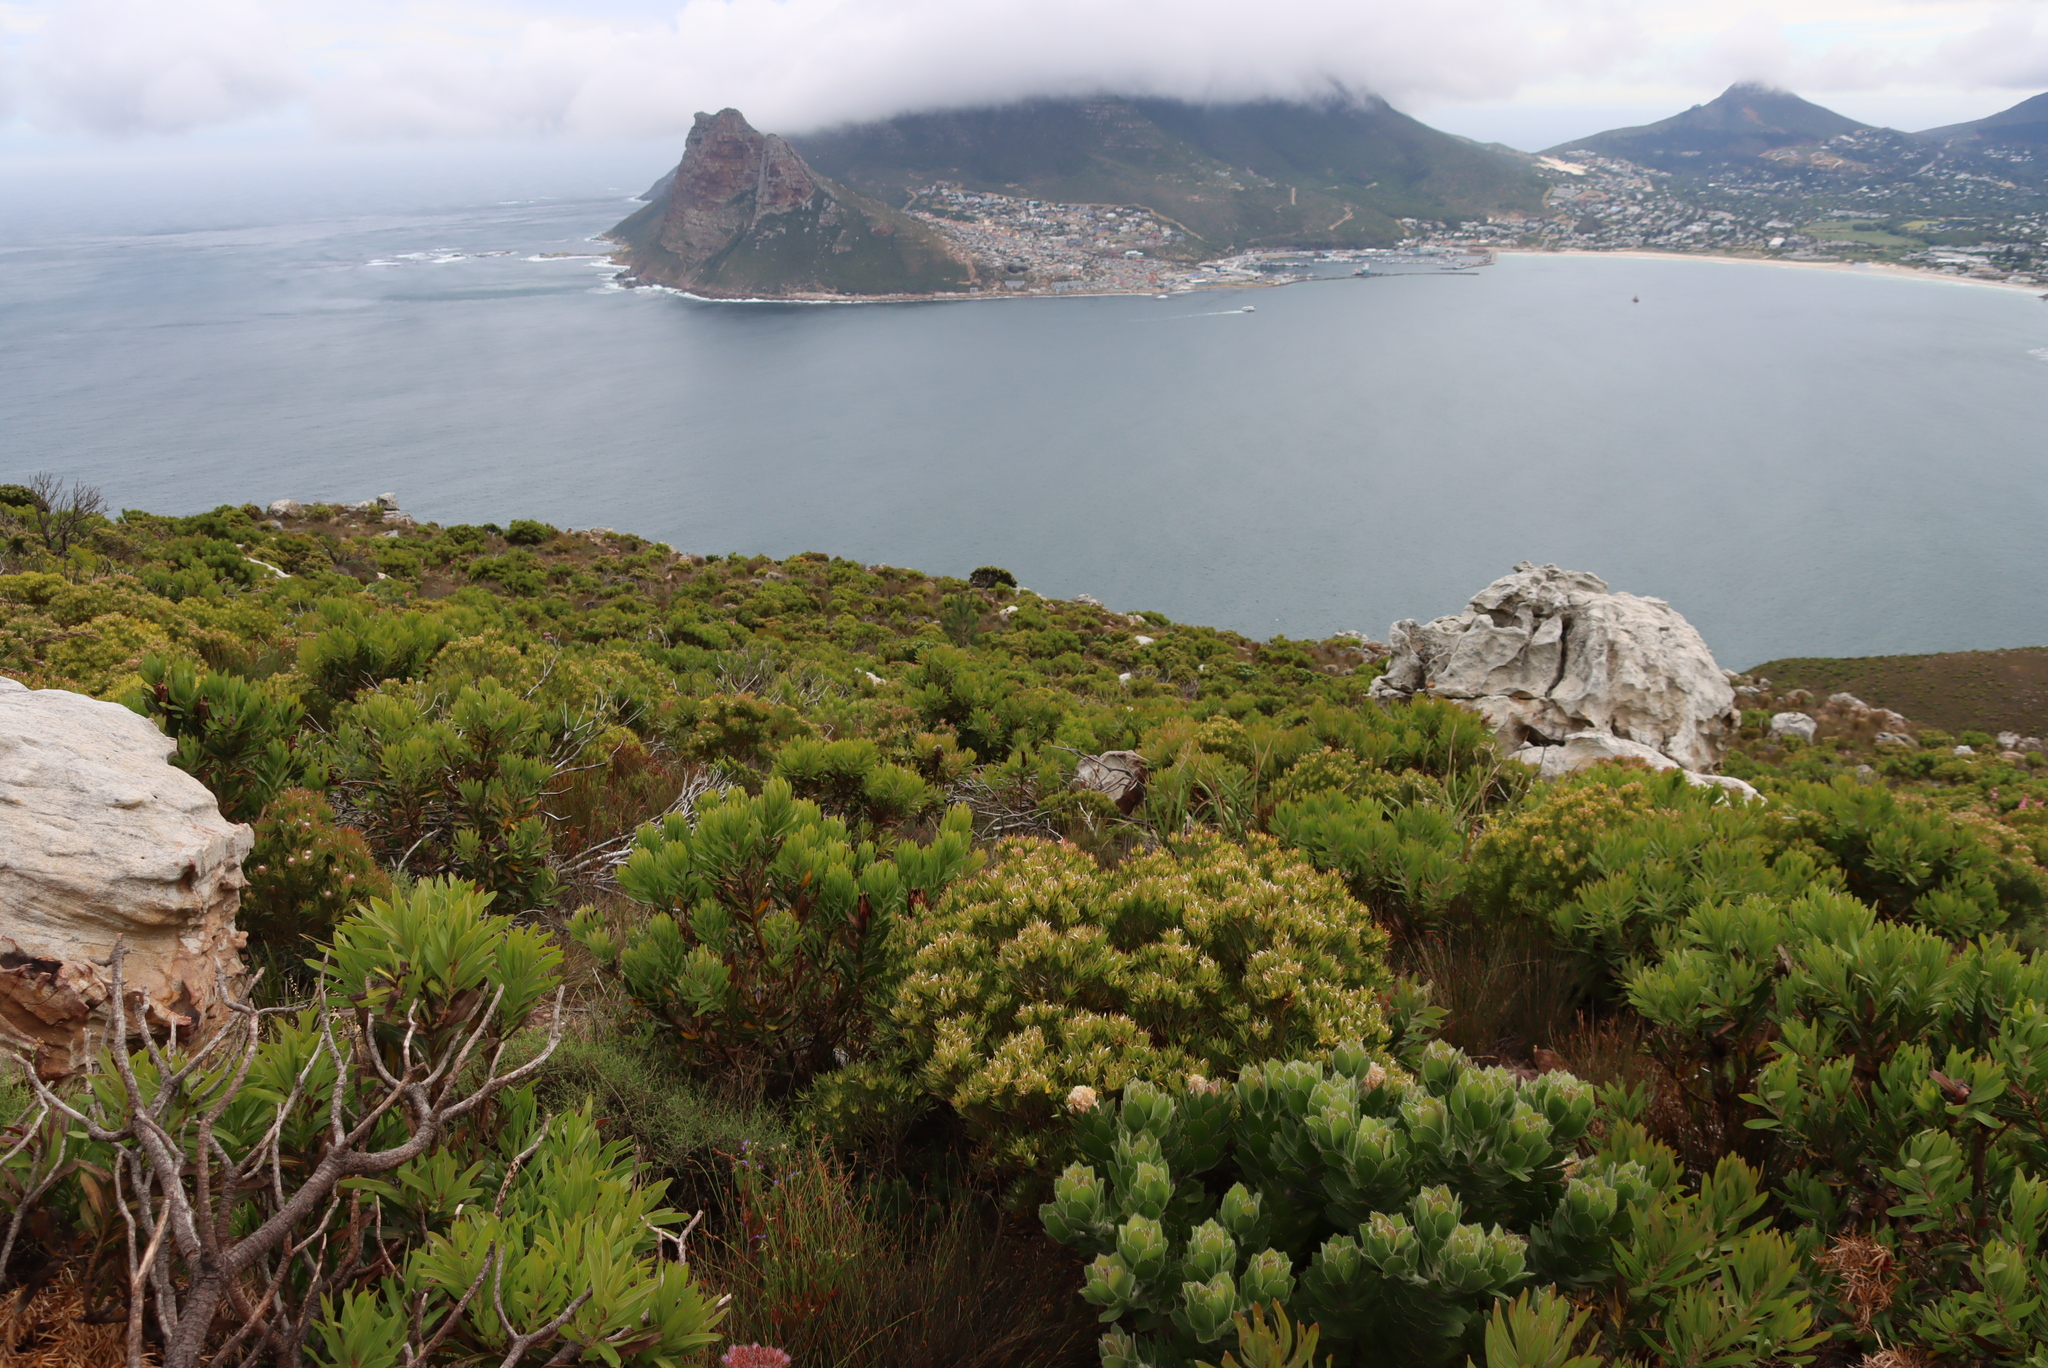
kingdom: Plantae
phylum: Tracheophyta
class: Magnoliopsida
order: Proteales
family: Proteaceae
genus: Leucadendron
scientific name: Leucadendron xanthoconus
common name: Sickle-leaf conebush
